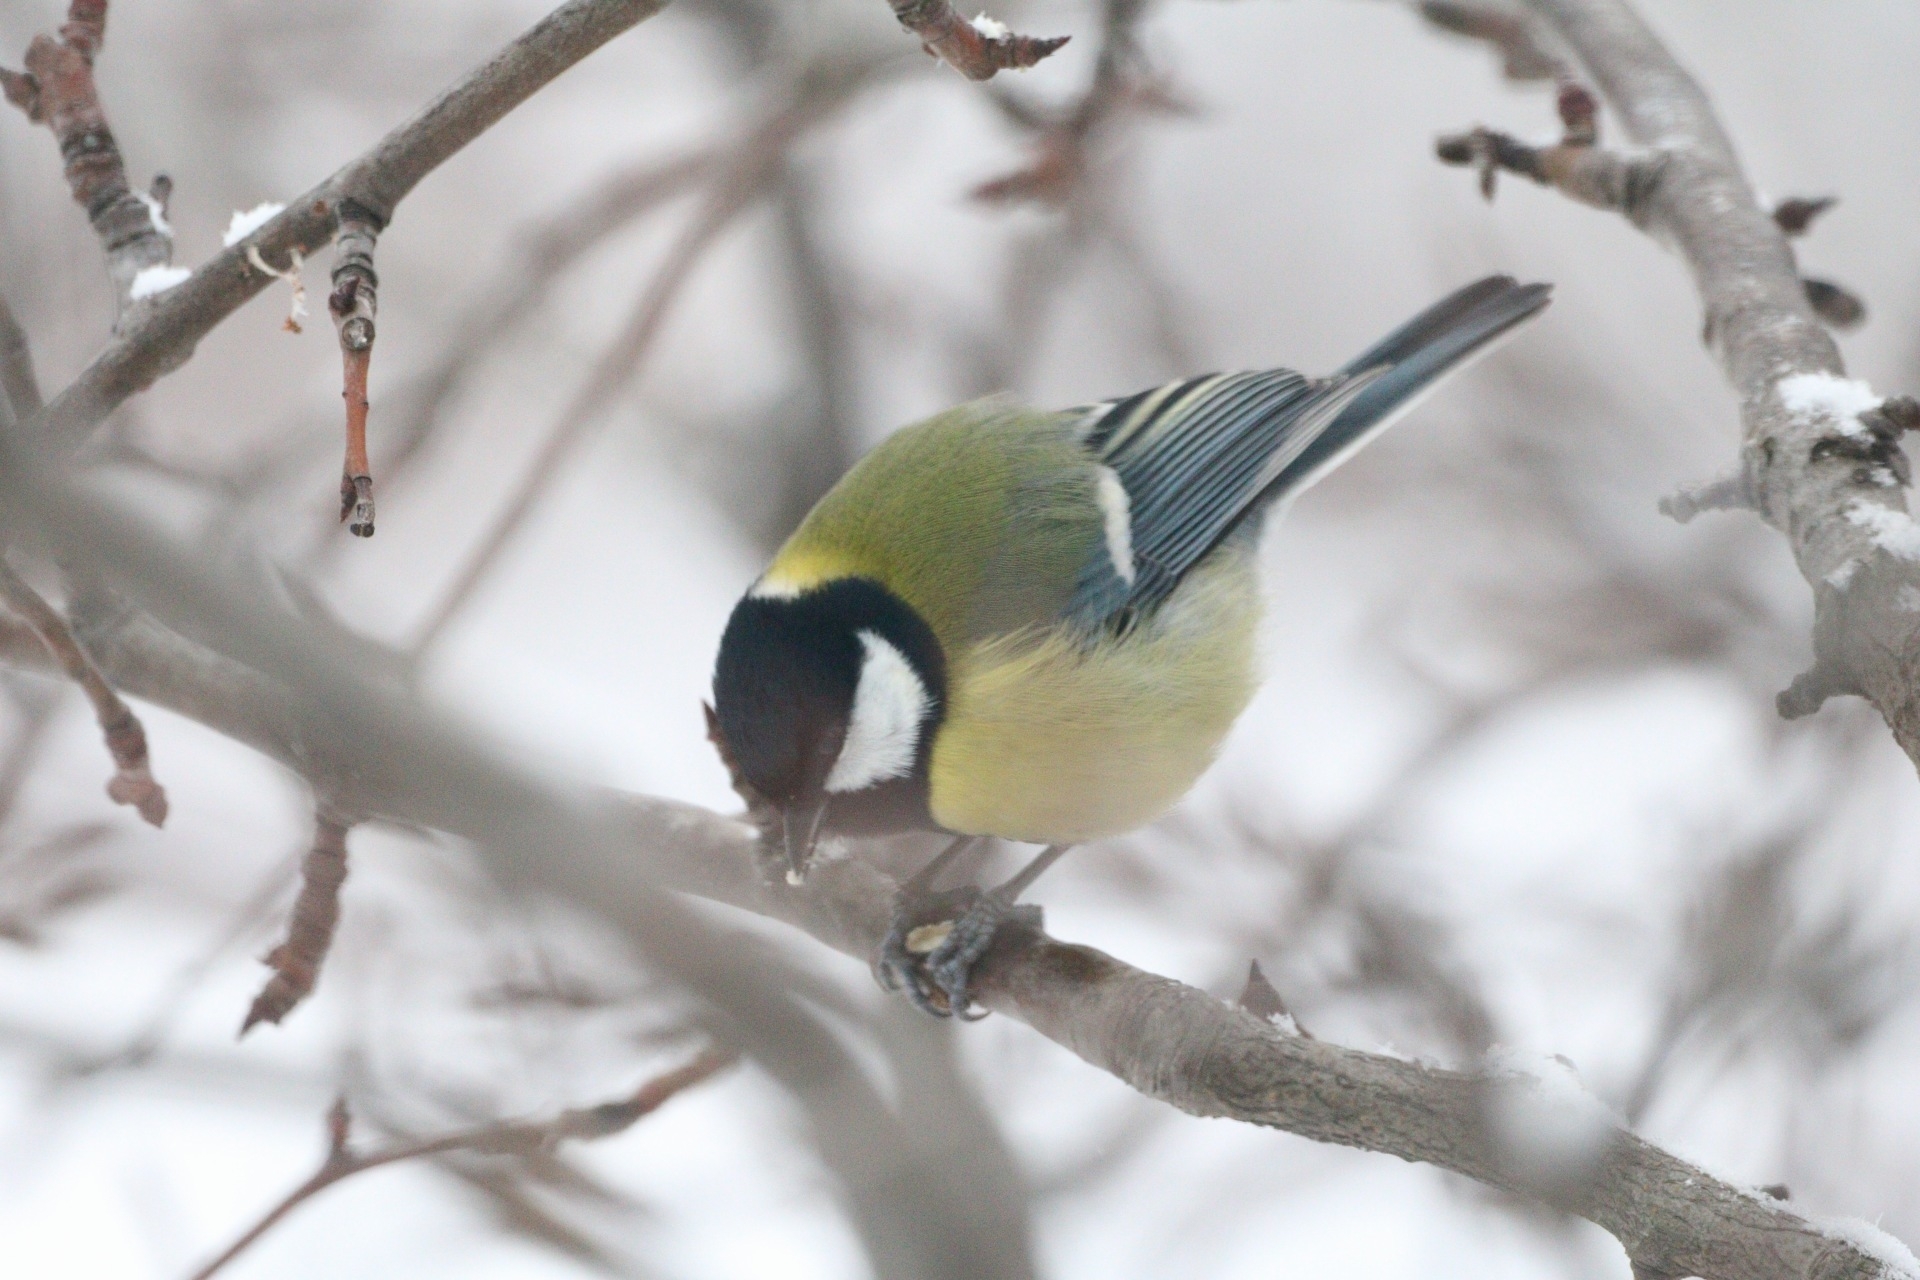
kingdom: Animalia
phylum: Chordata
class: Aves
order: Passeriformes
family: Paridae
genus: Parus
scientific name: Parus major
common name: Great tit
